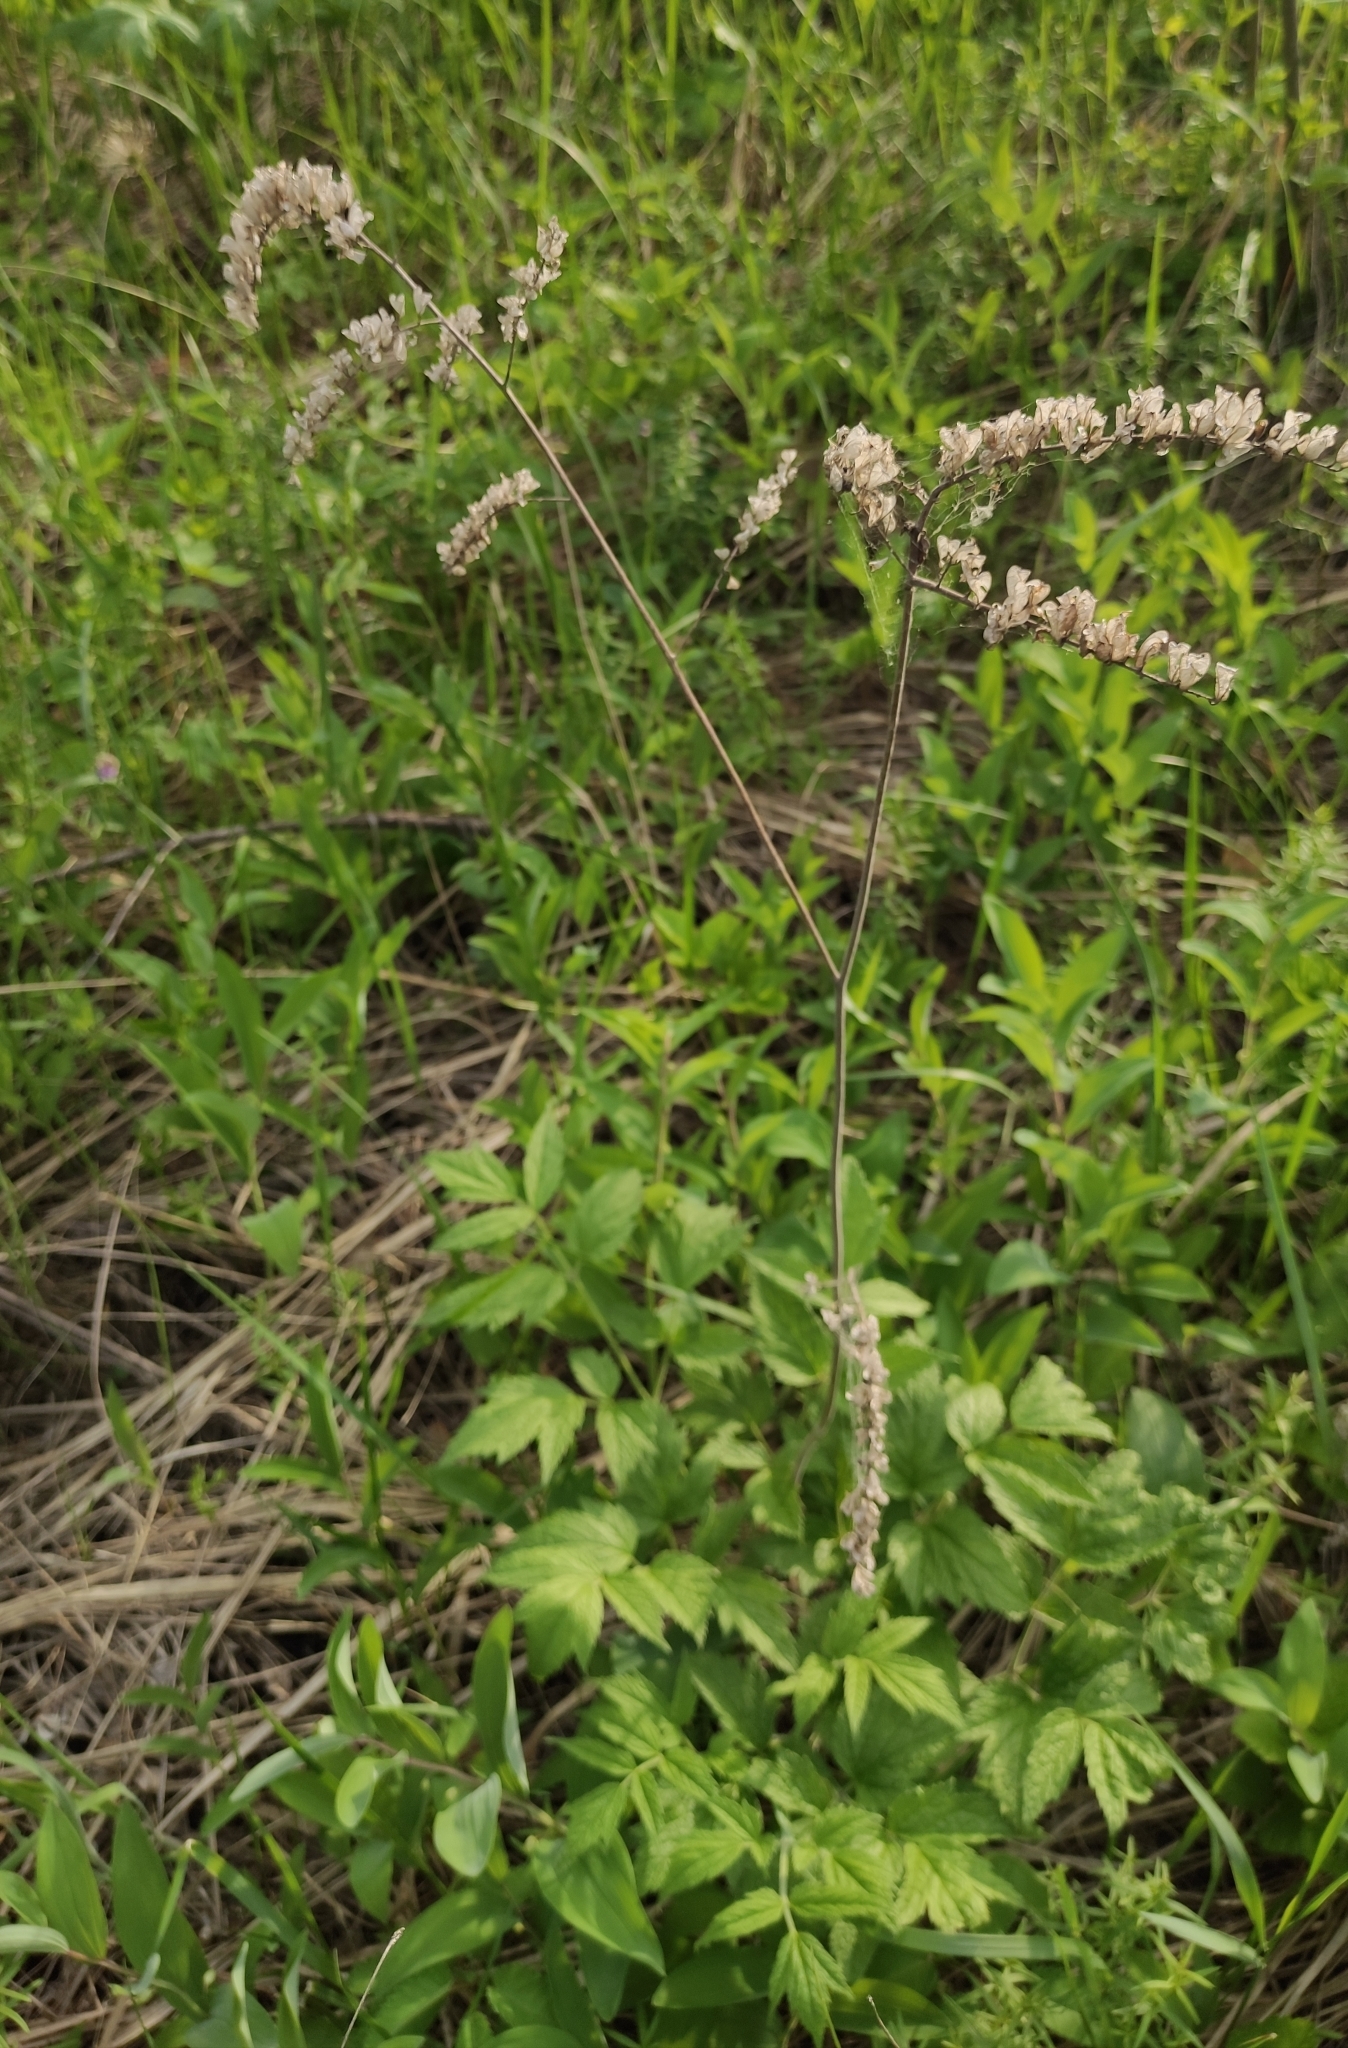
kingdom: Plantae
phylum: Tracheophyta
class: Magnoliopsida
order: Ranunculales
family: Ranunculaceae
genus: Actaea
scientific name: Actaea cimicifuga
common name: Chinese cimicifuga
